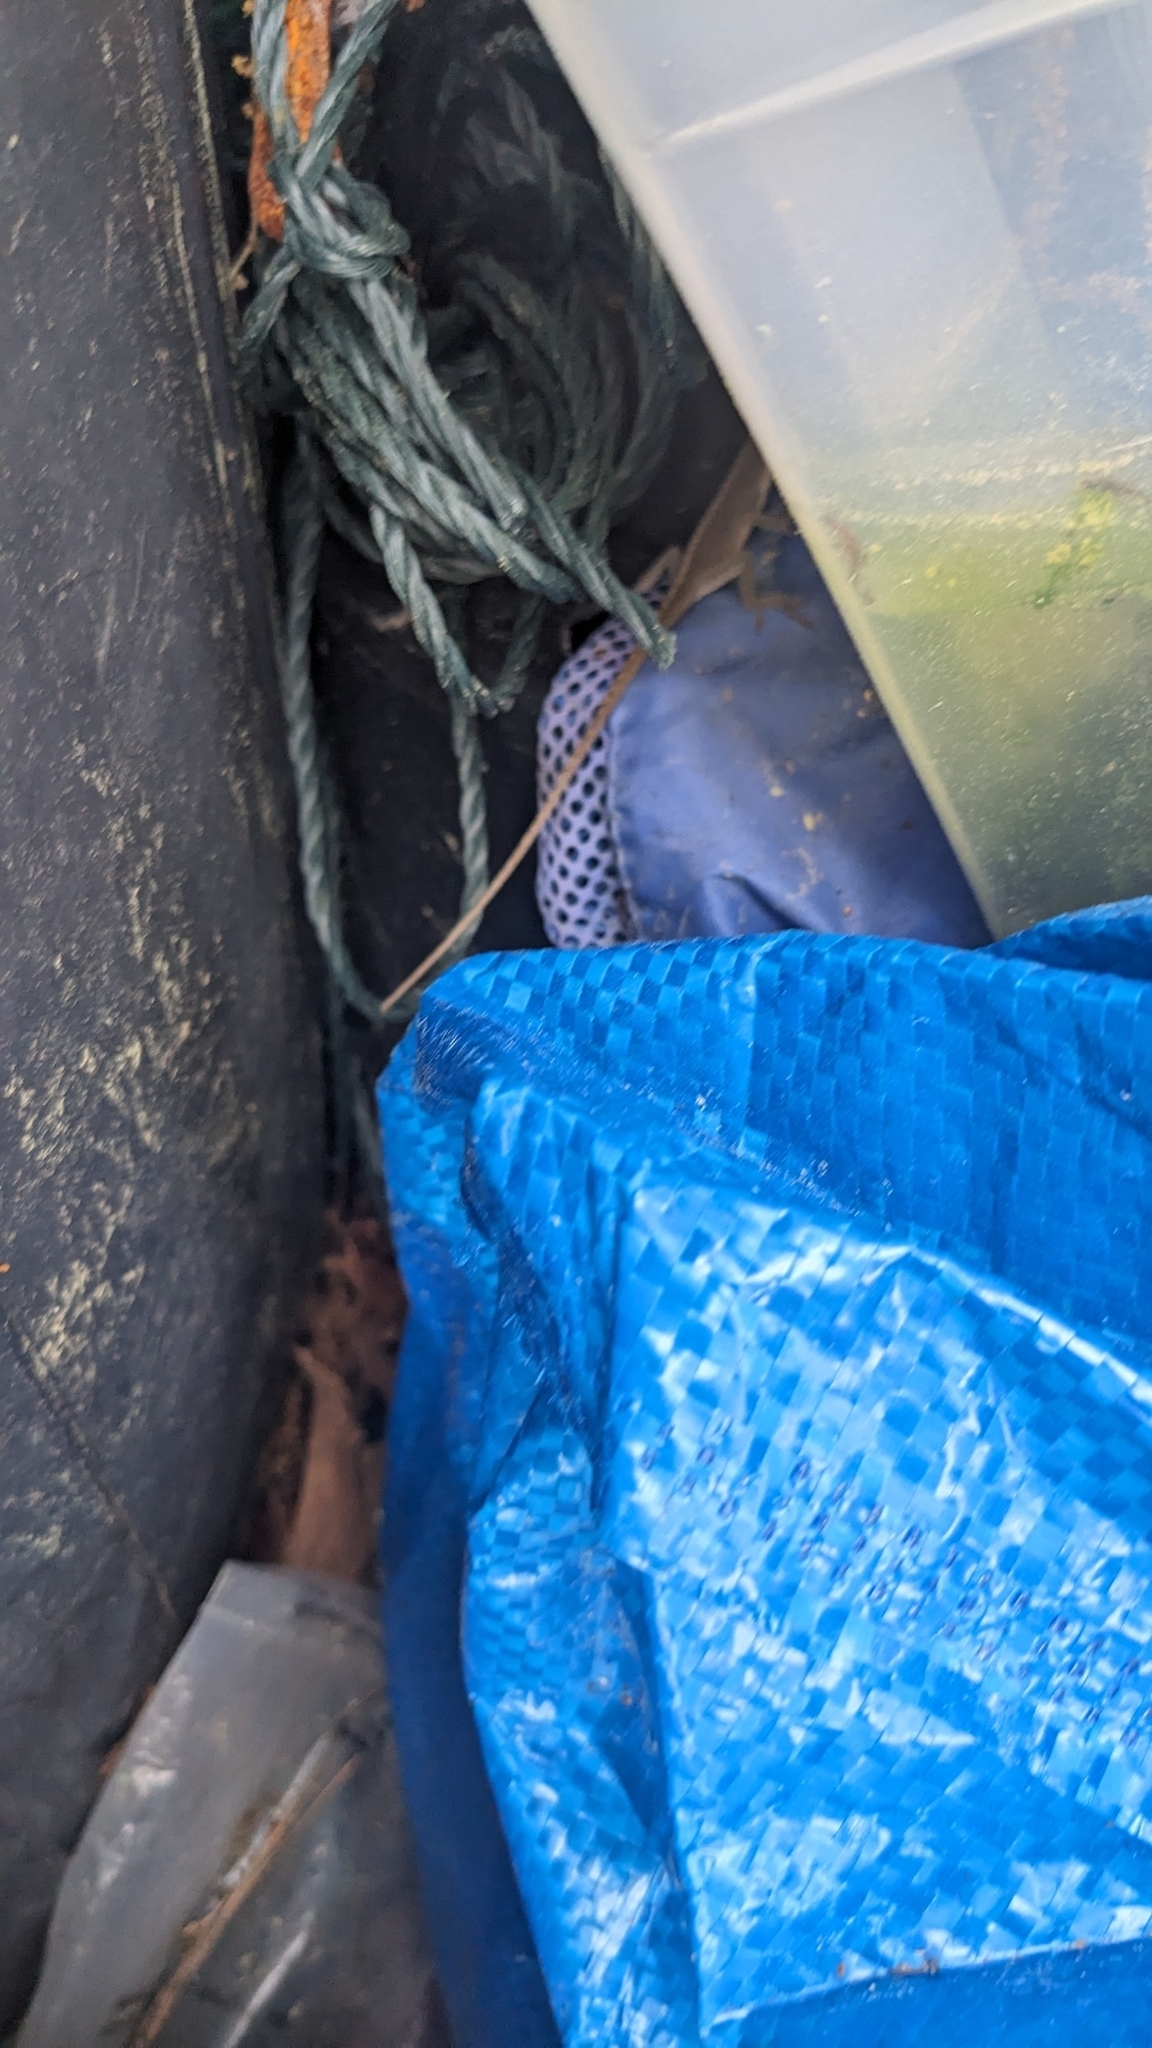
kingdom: Animalia
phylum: Chordata
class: Squamata
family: Dactyloidae
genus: Anolis
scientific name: Anolis carolinensis
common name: Green anole
